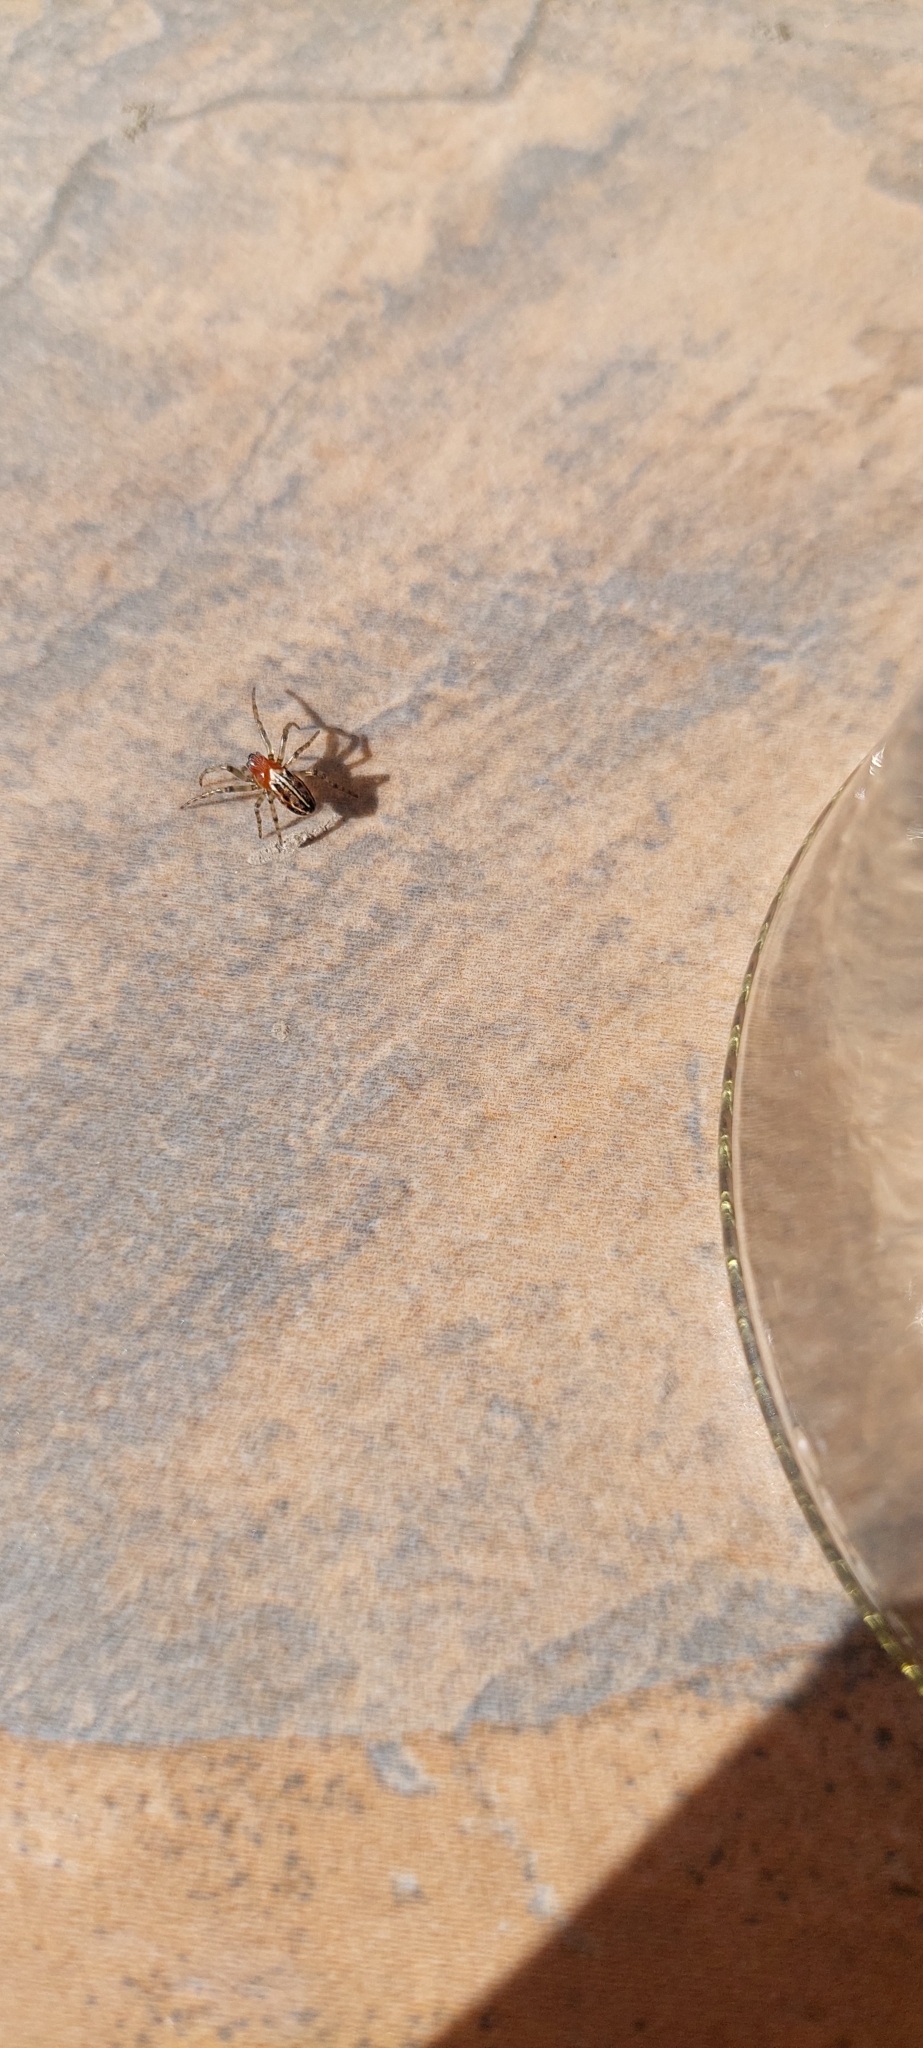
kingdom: Animalia
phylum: Arthropoda
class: Arachnida
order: Araneae
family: Araneidae
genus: Alpaida
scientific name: Alpaida leucogramma
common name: Orb weavers
